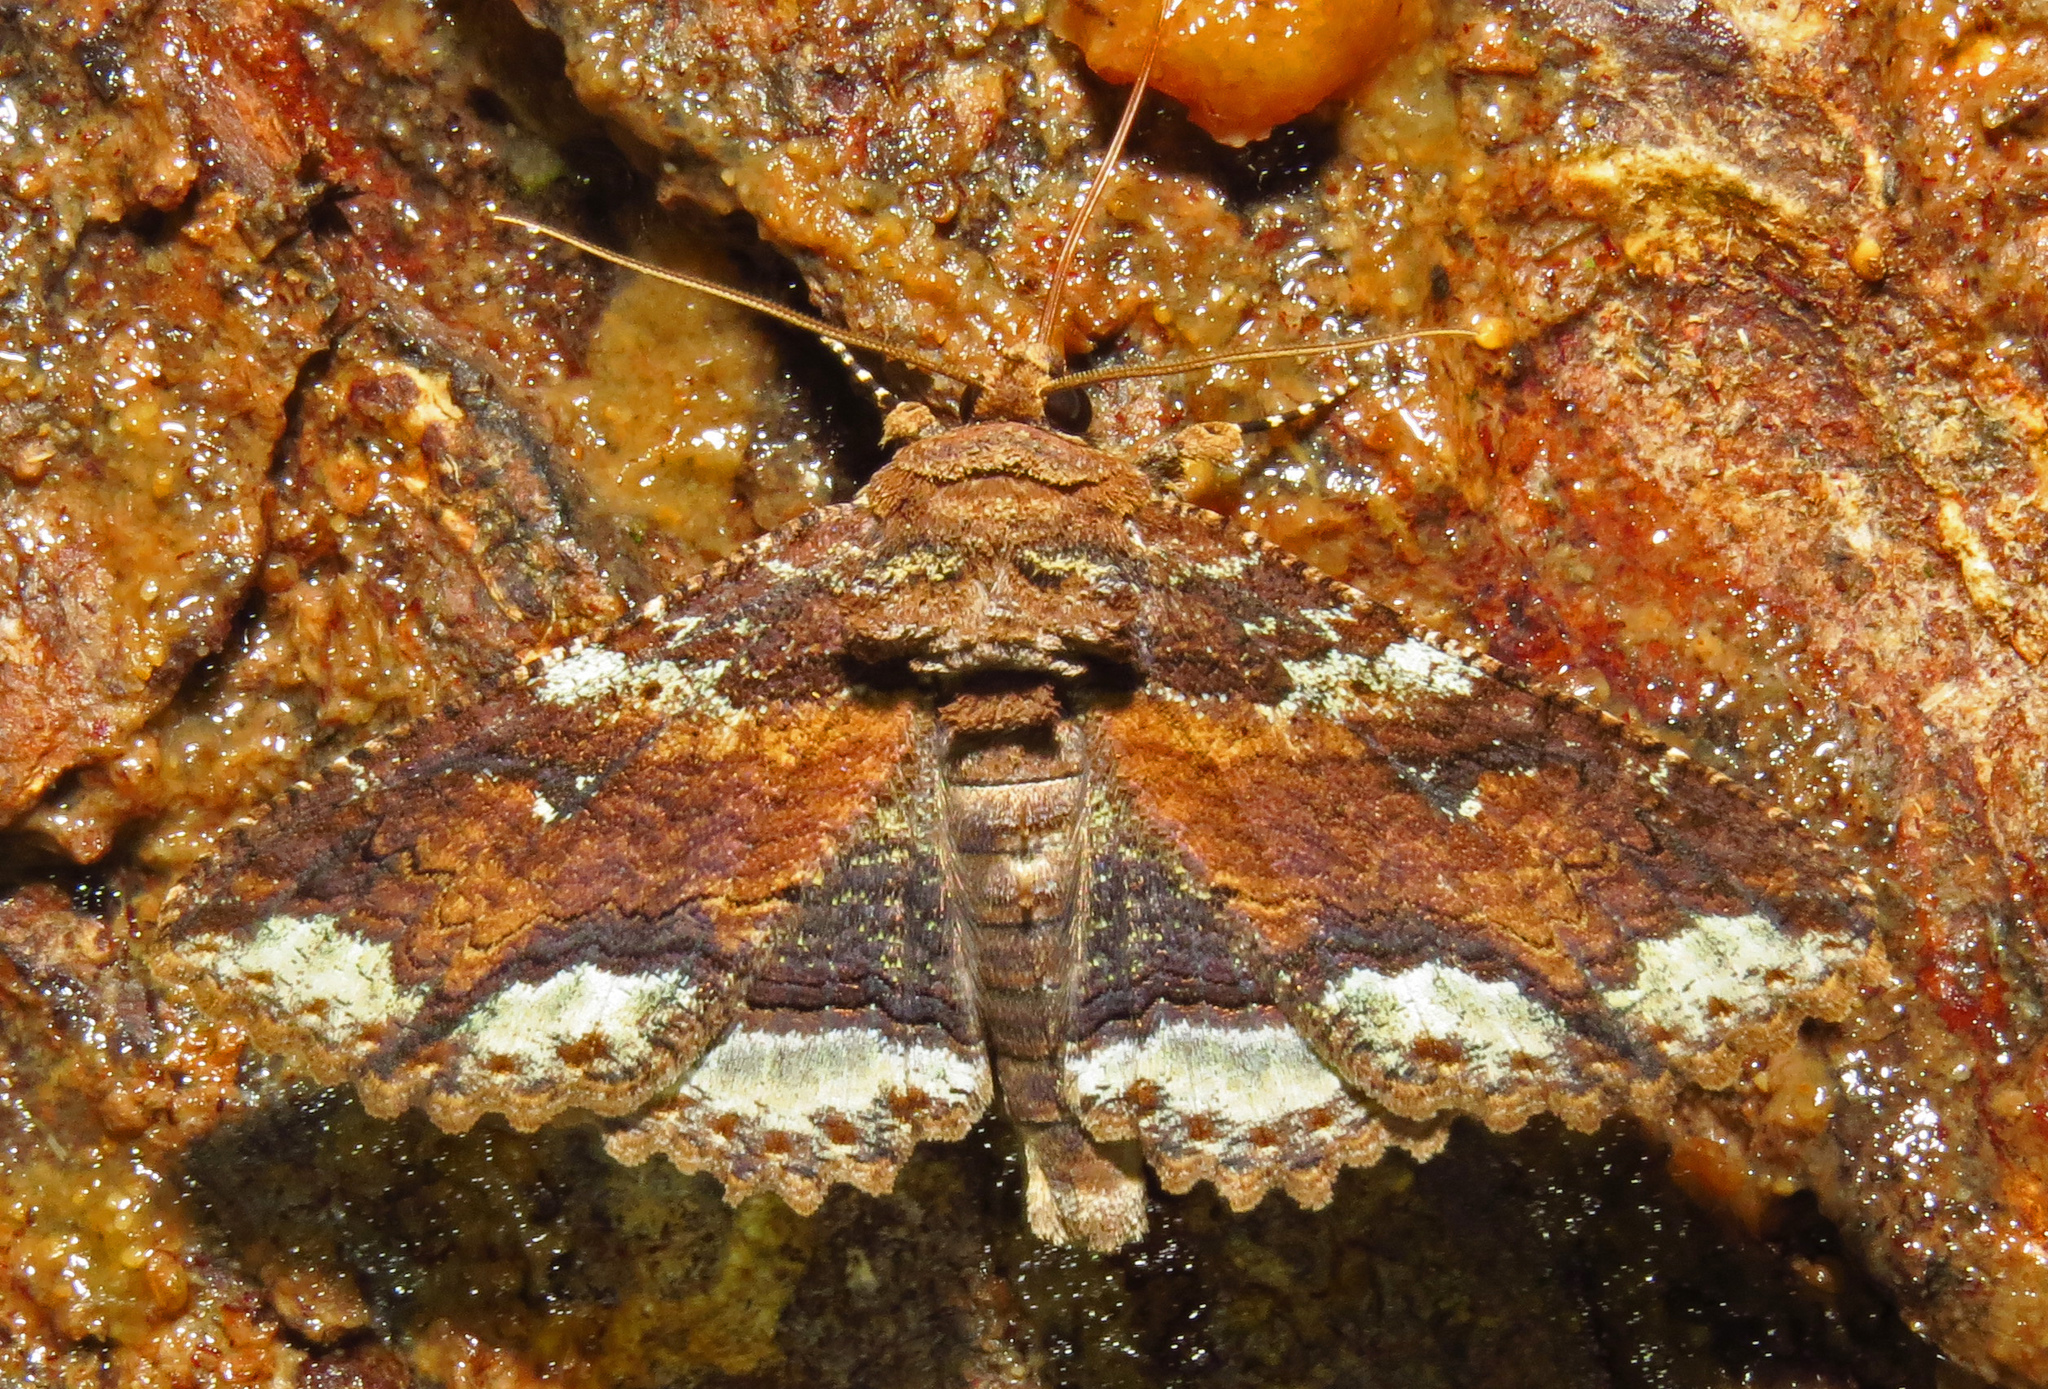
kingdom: Animalia
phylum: Arthropoda
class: Insecta
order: Lepidoptera
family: Erebidae
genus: Zale
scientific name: Zale lunata
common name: Lunate zale moth
